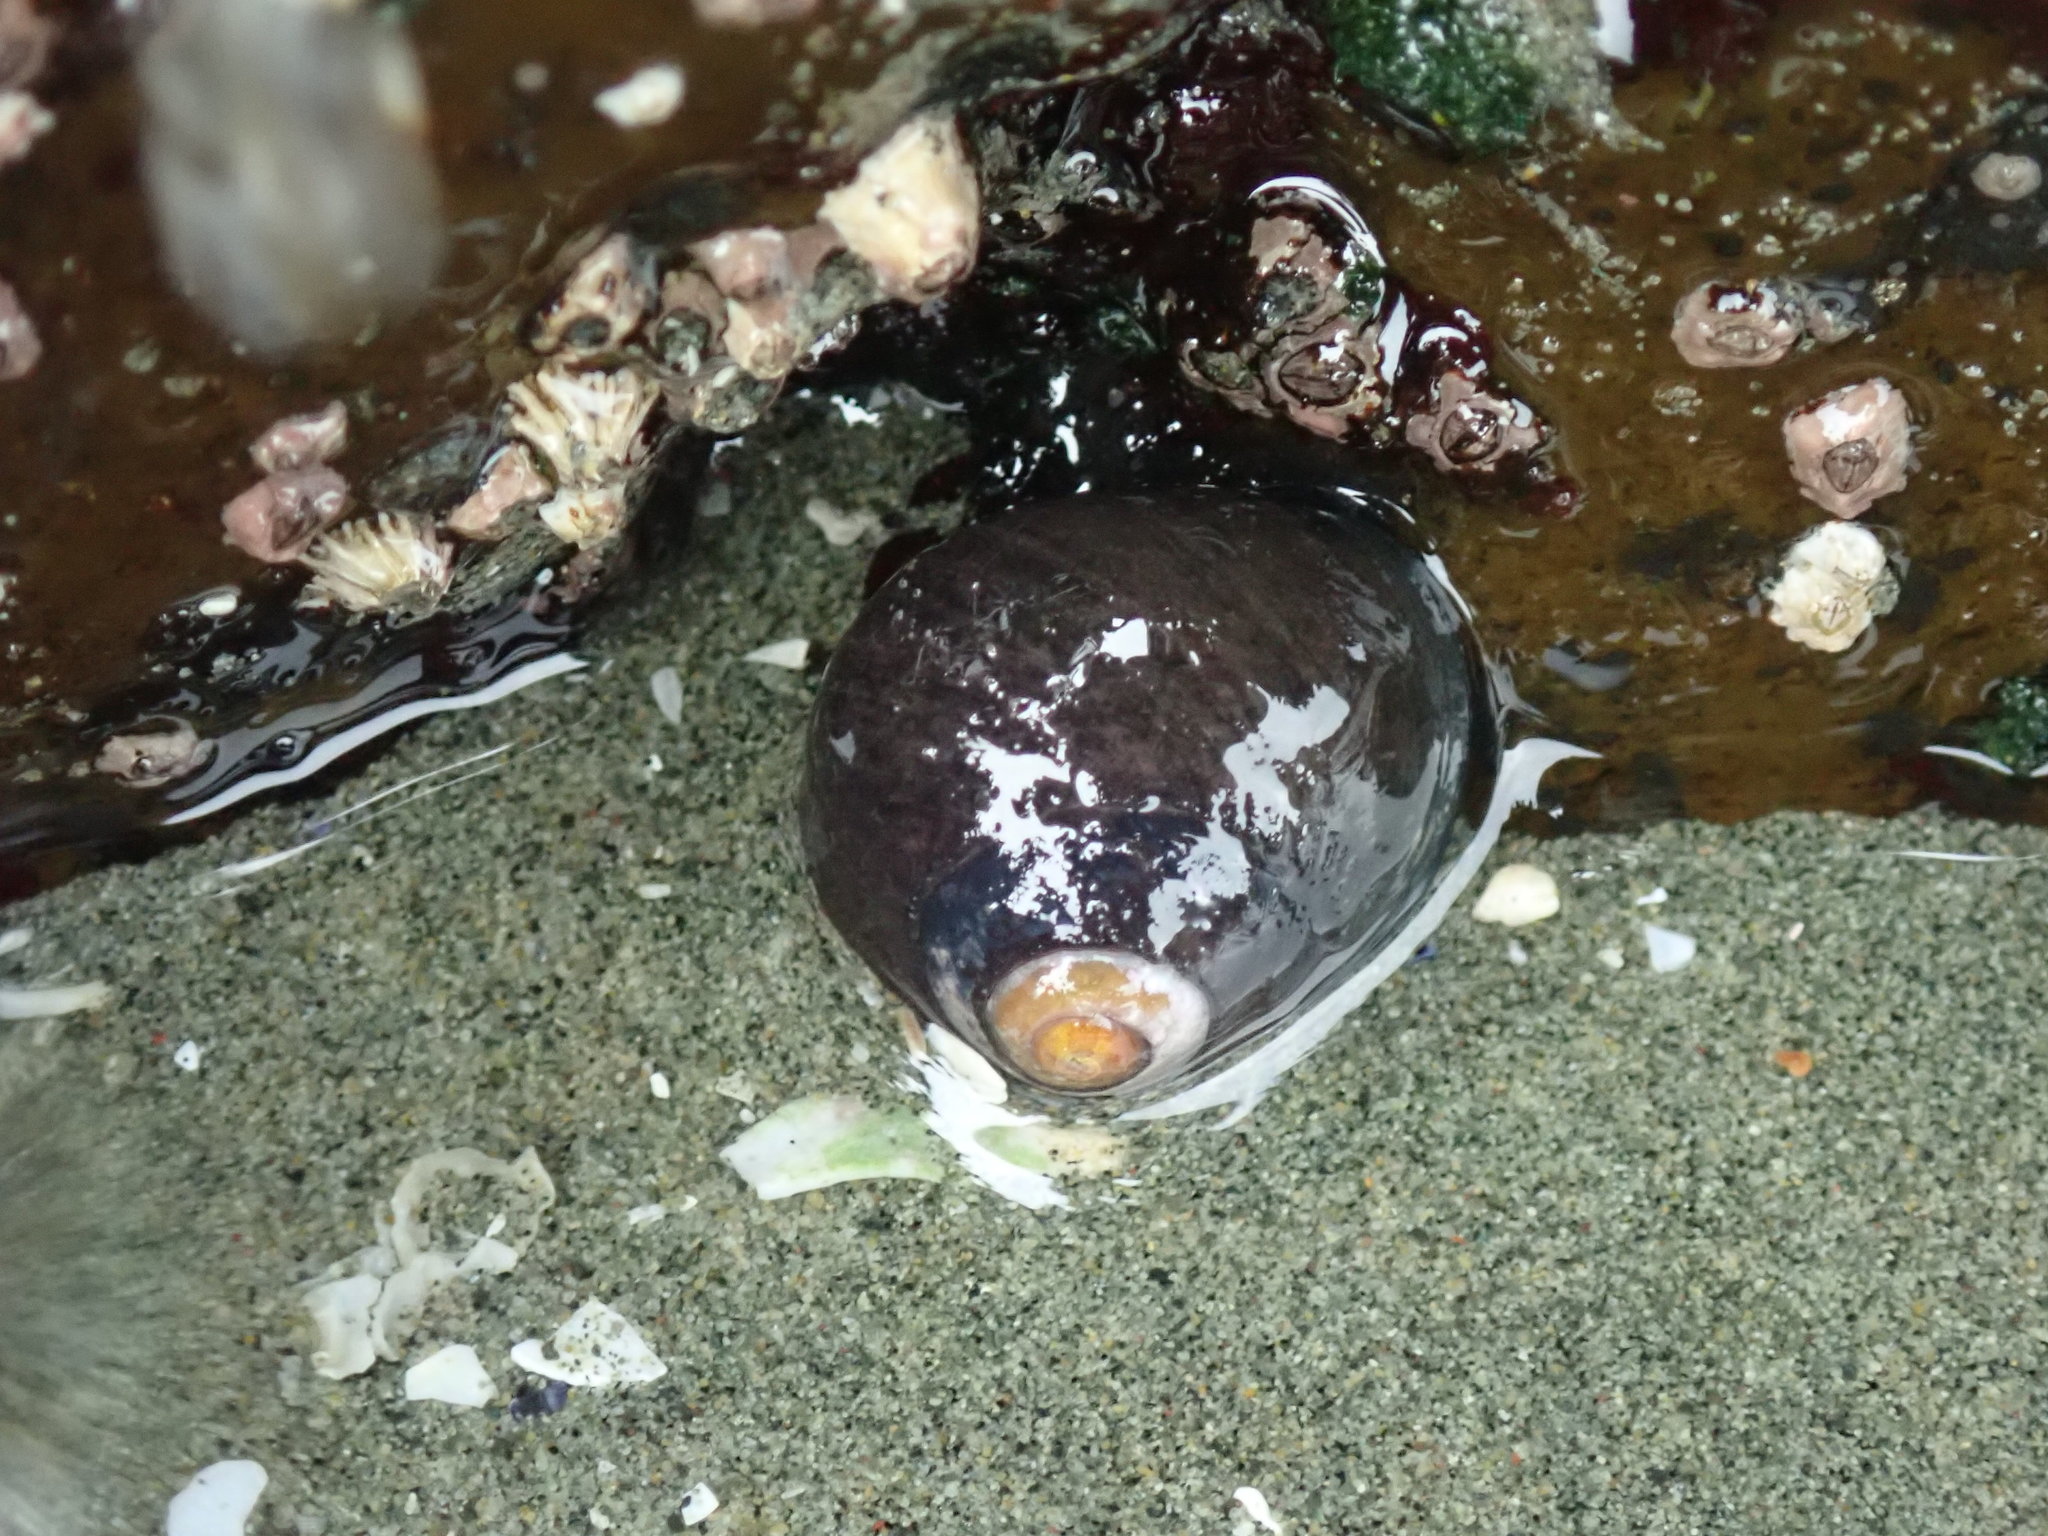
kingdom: Animalia
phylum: Mollusca
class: Gastropoda
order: Trochida
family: Tegulidae
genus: Tegula
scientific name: Tegula funebralis
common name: Black tegula
